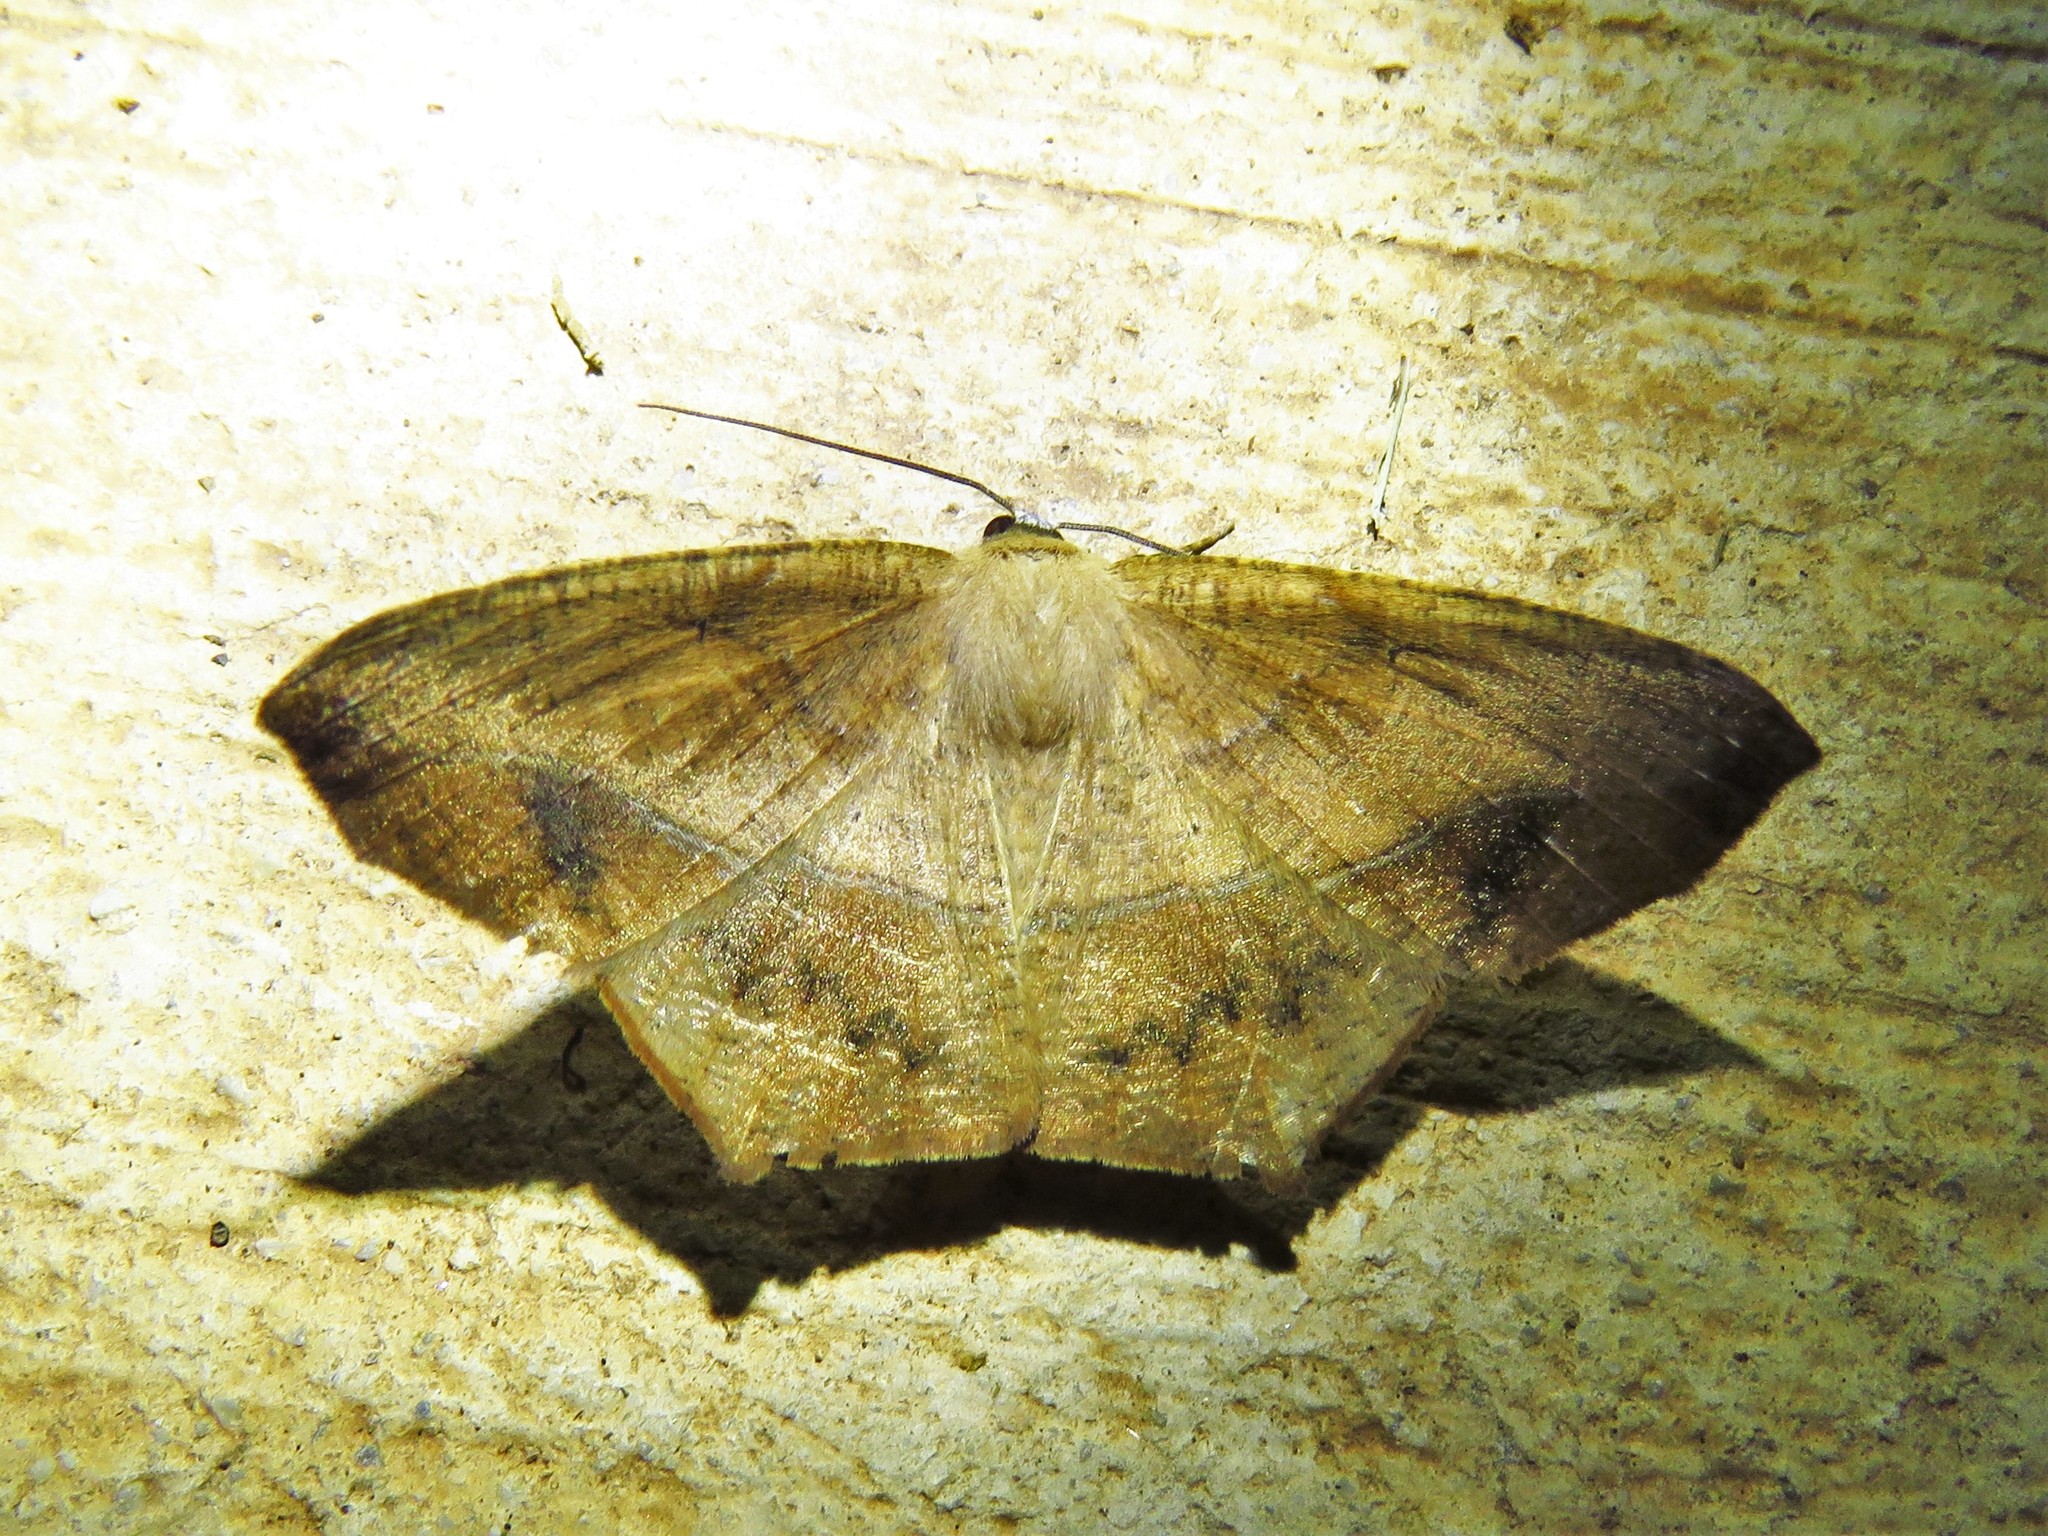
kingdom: Animalia
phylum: Arthropoda
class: Insecta
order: Lepidoptera
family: Geometridae
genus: Prochoerodes
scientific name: Prochoerodes lineola
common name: Large maple spanworm
